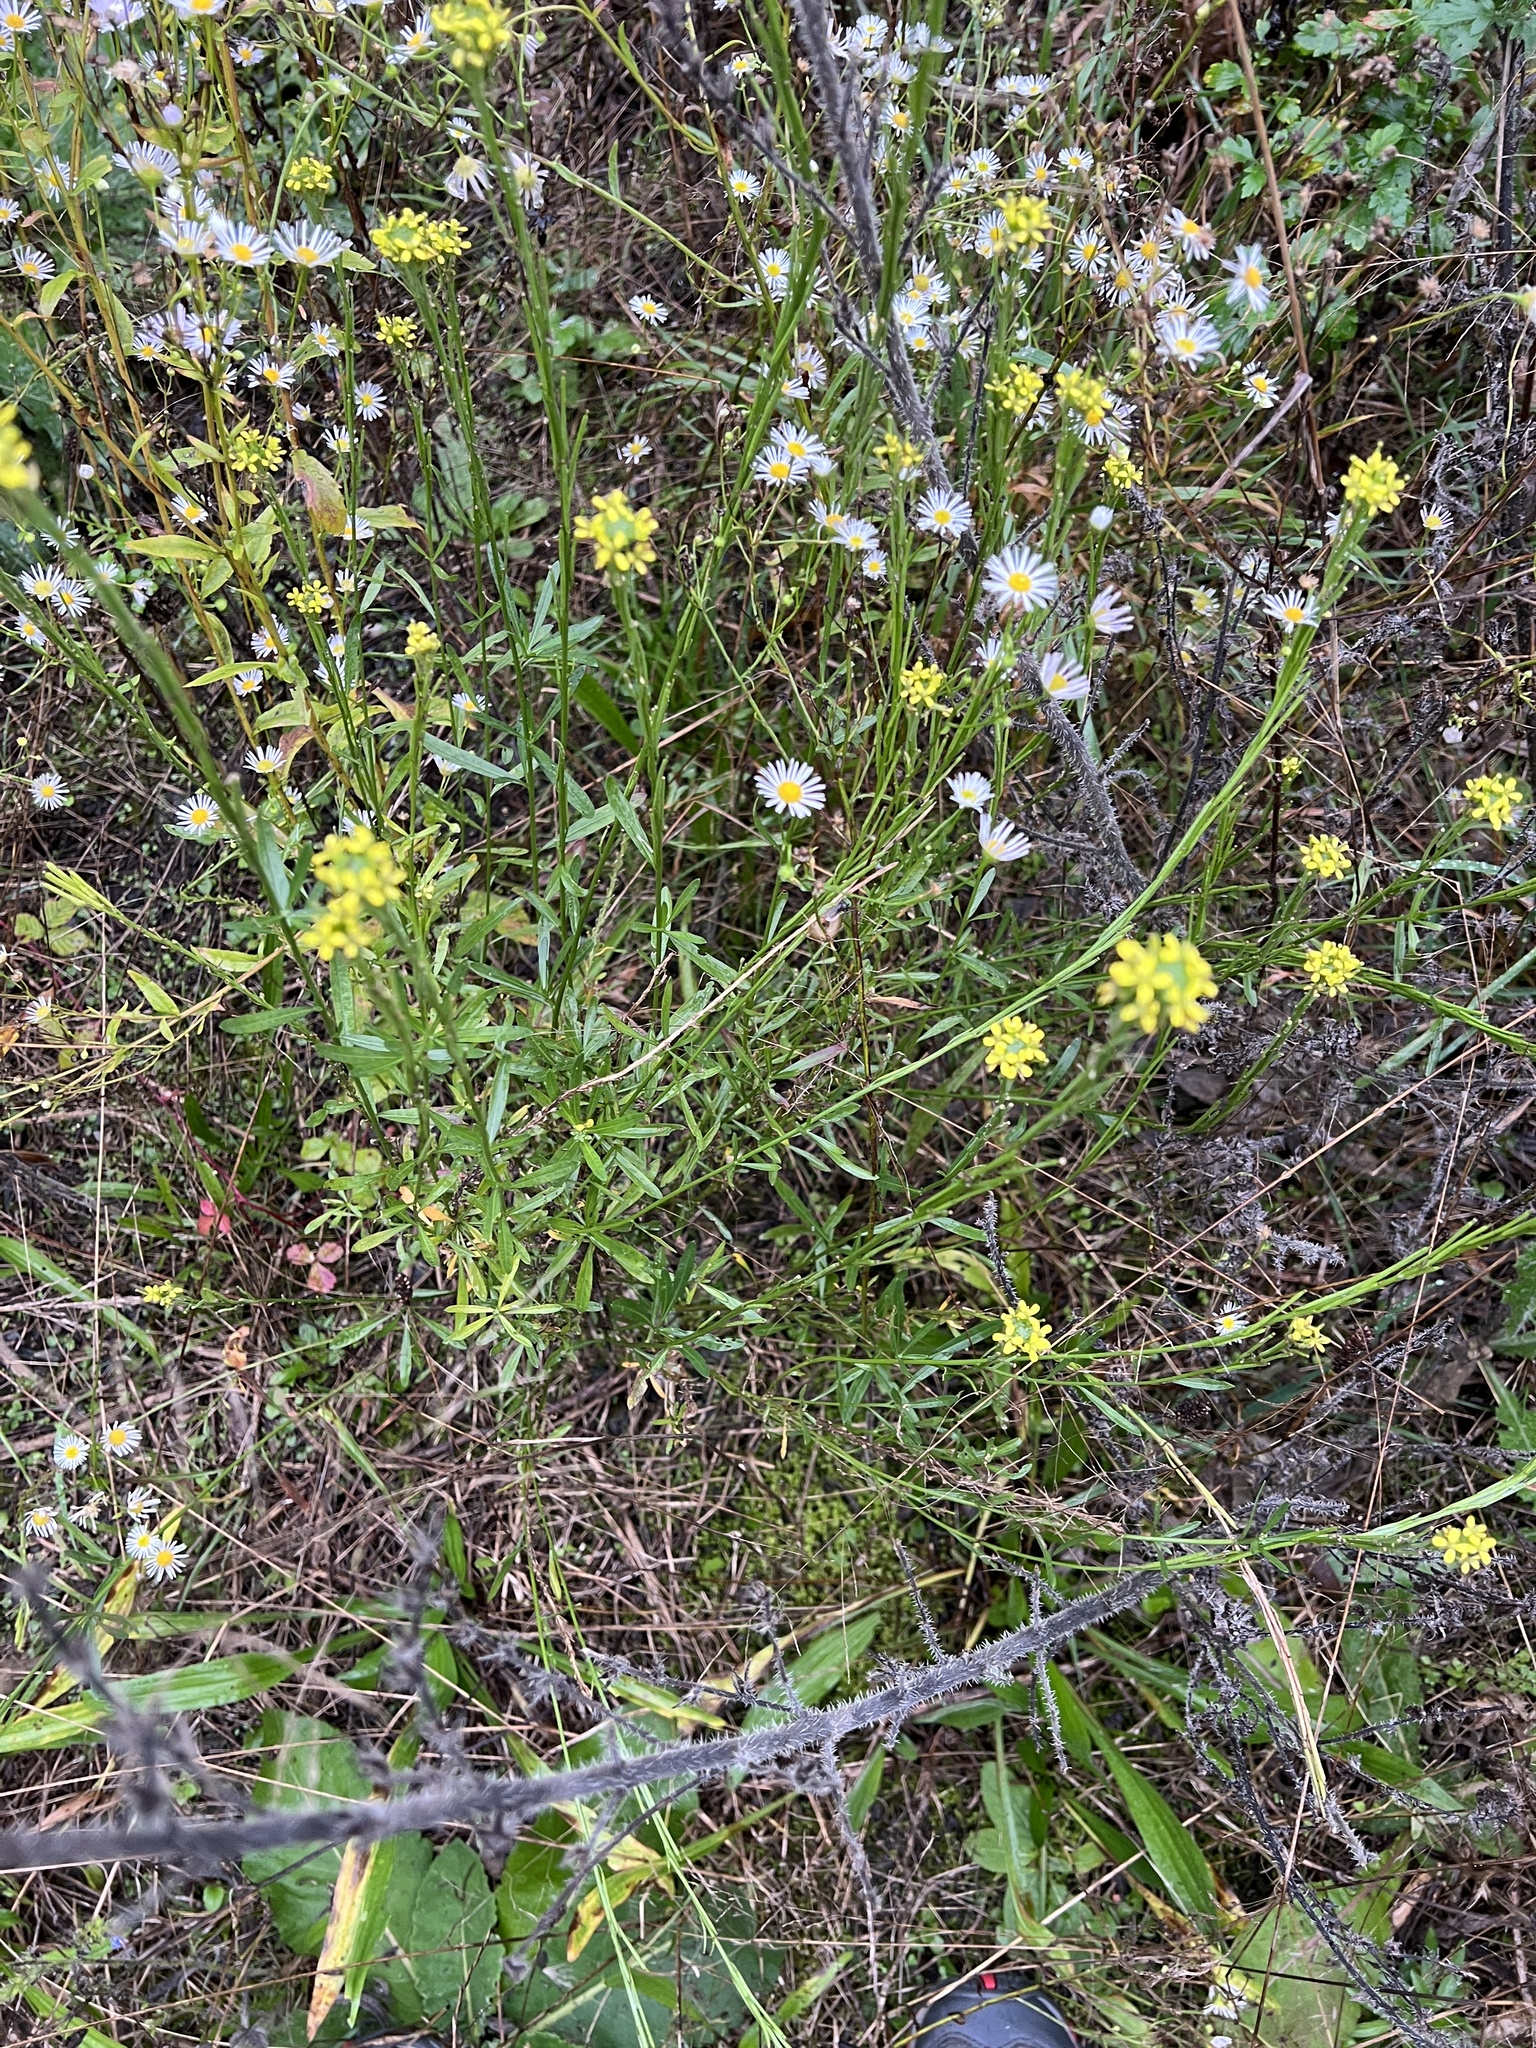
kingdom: Plantae
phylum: Tracheophyta
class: Magnoliopsida
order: Brassicales
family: Brassicaceae
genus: Erysimum
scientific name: Erysimum marschallianum
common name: Hard wallflower
